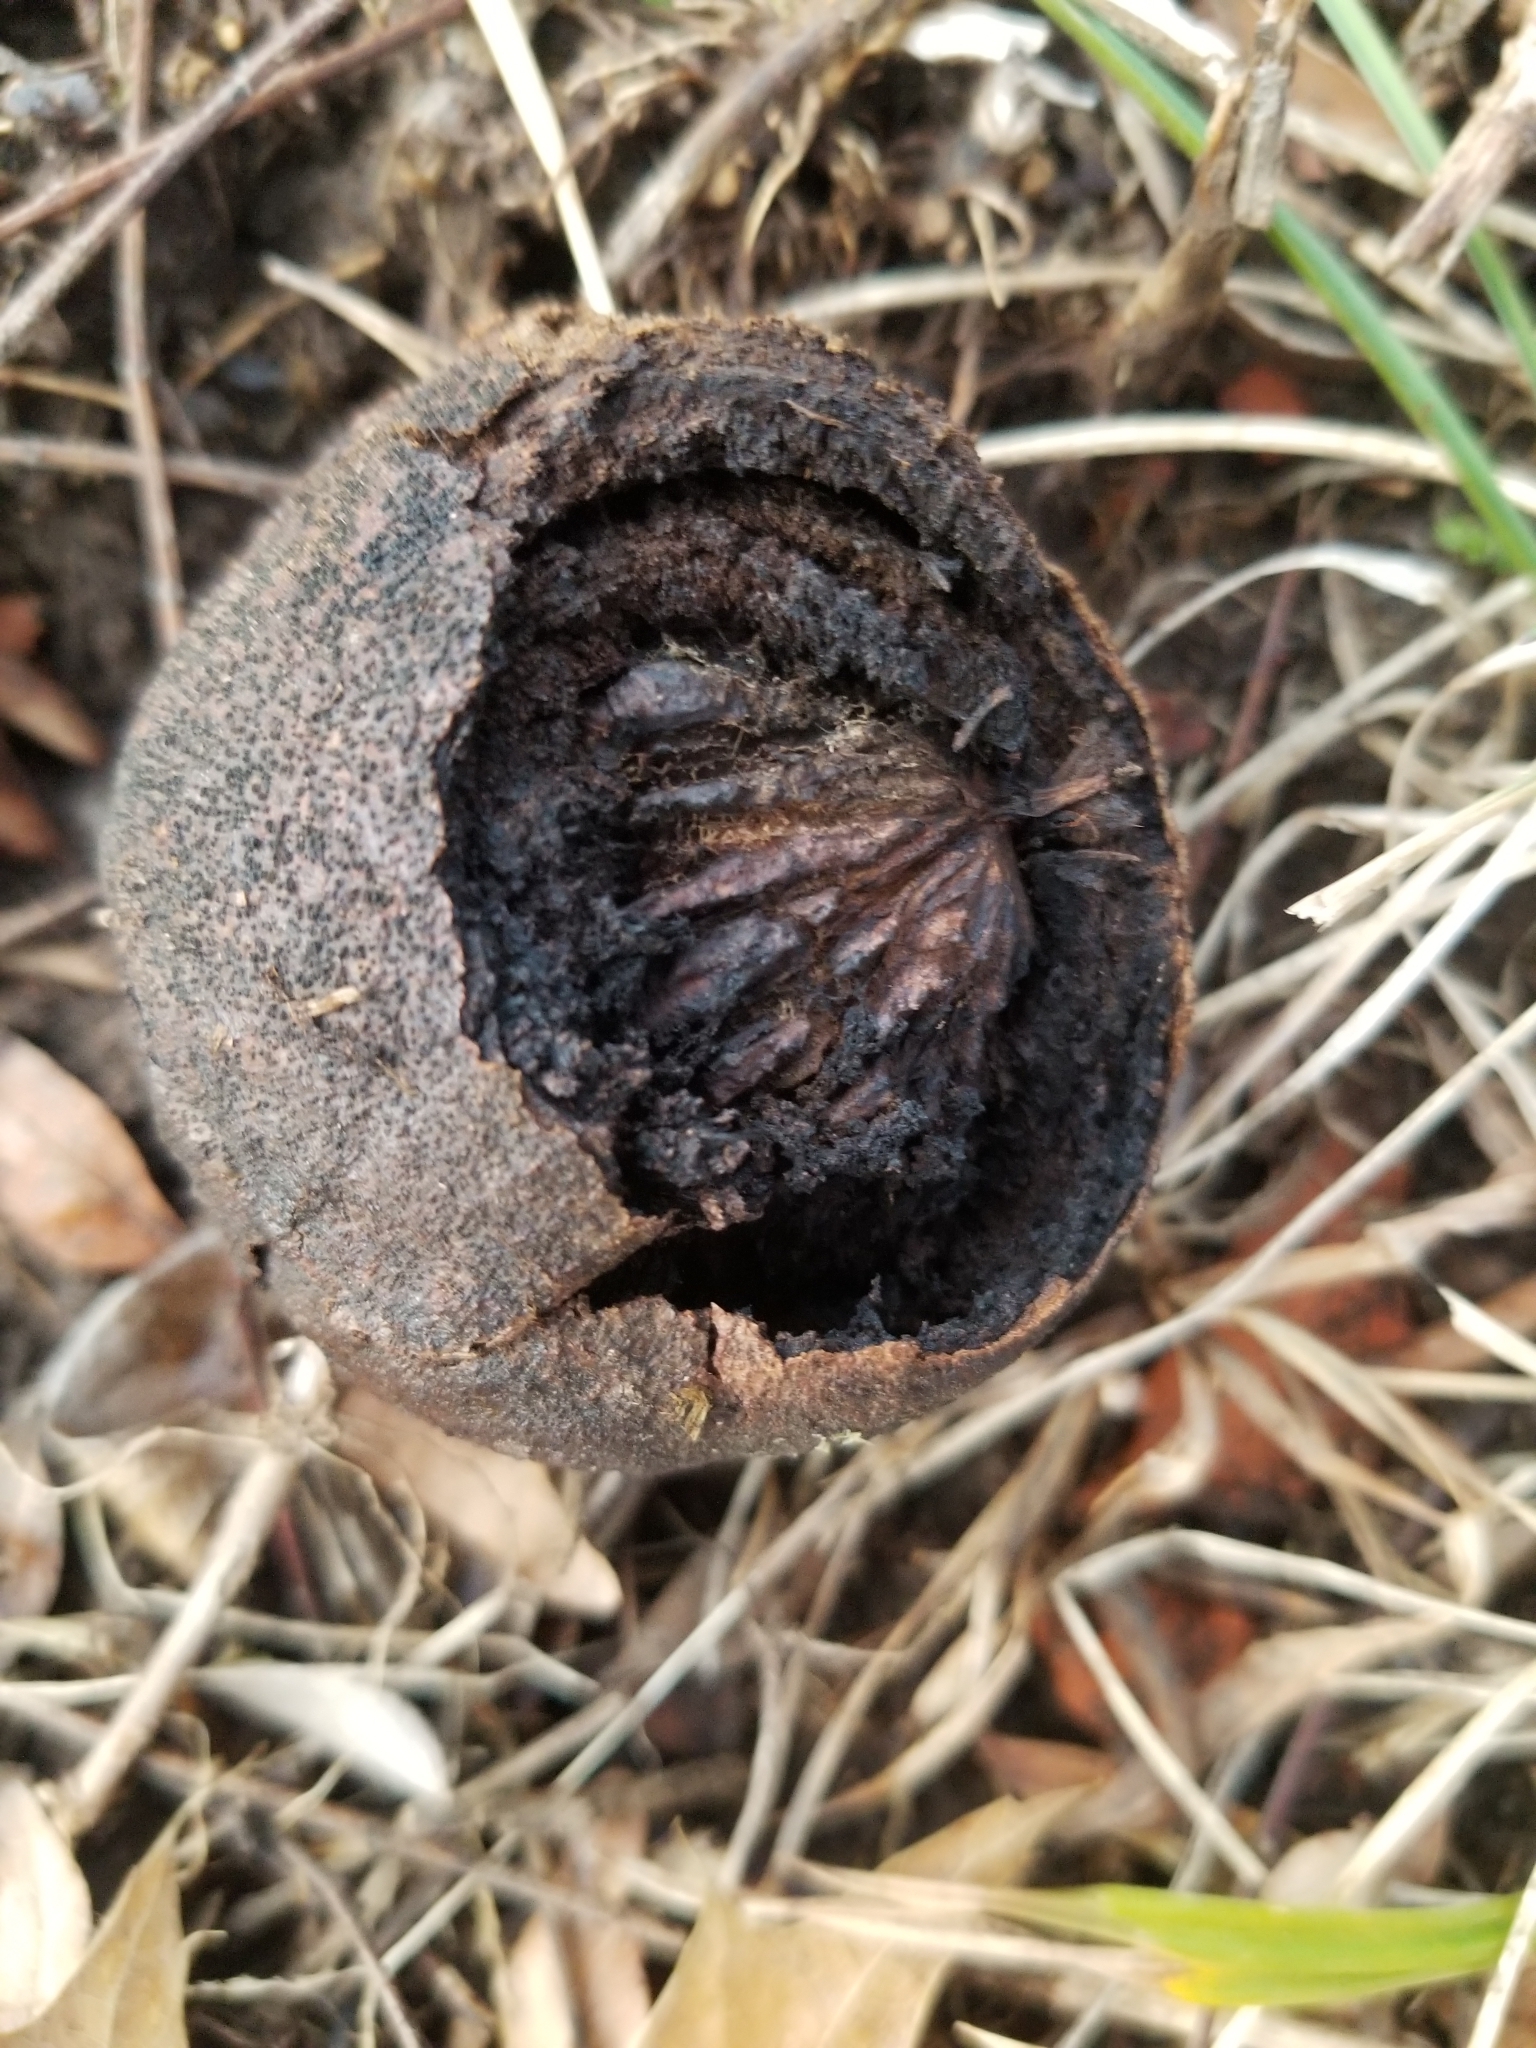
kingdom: Plantae
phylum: Tracheophyta
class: Magnoliopsida
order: Fagales
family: Juglandaceae
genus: Juglans
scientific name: Juglans nigra
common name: Black walnut
